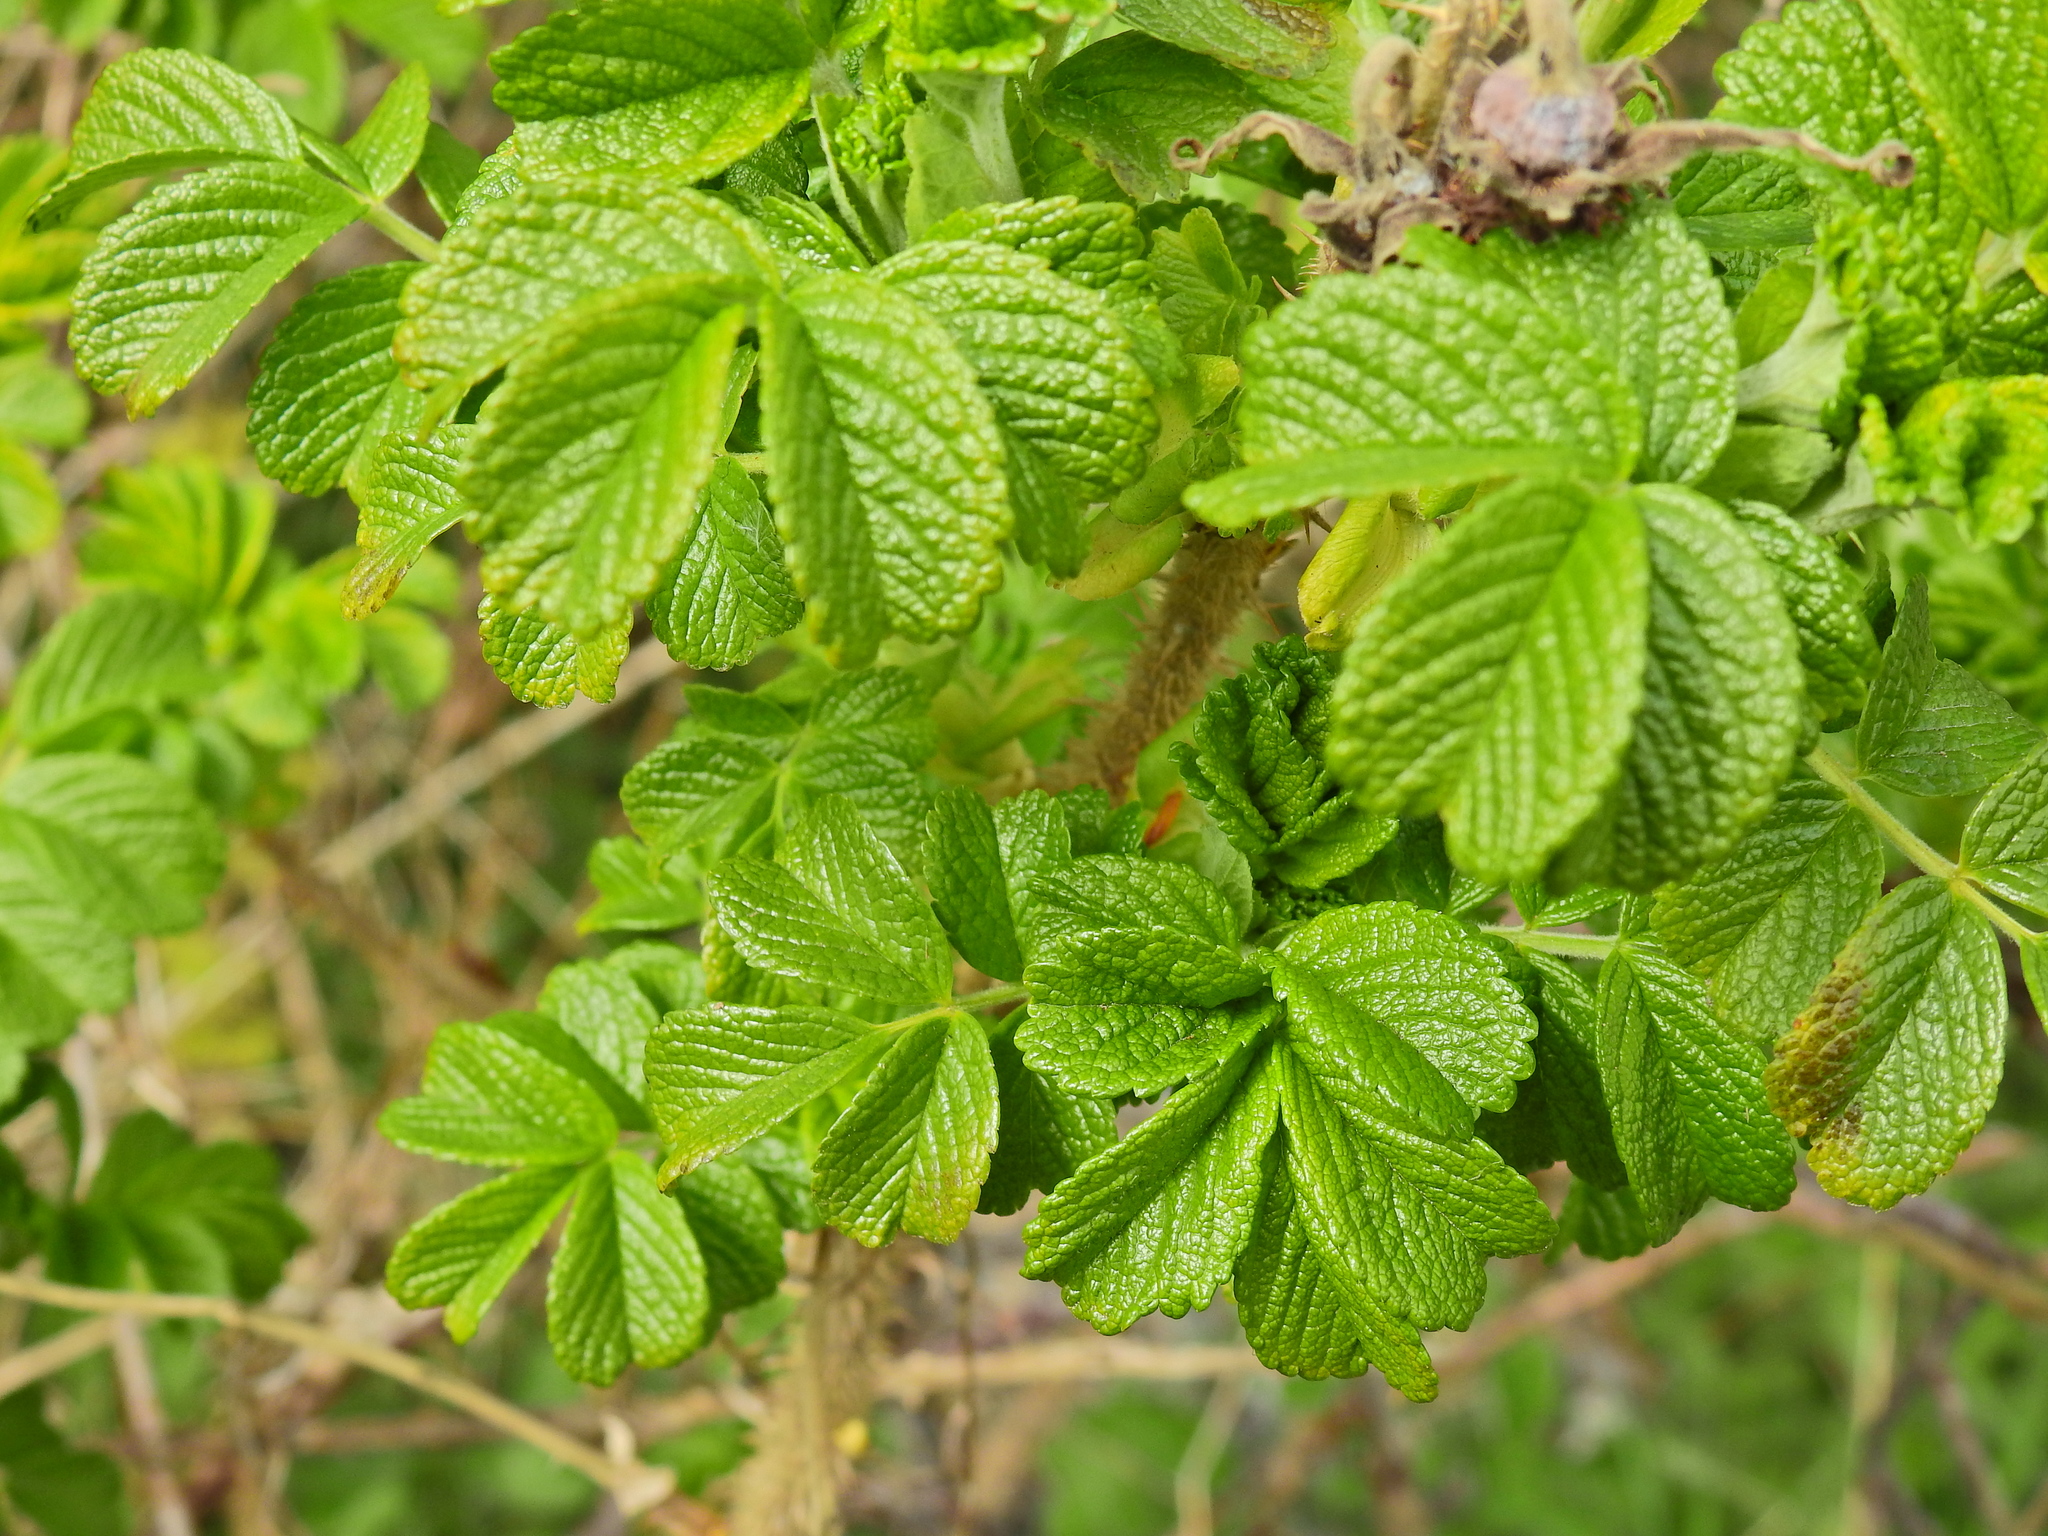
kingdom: Plantae
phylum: Tracheophyta
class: Magnoliopsida
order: Rosales
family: Rosaceae
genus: Rosa
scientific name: Rosa rugosa
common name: Japanese rose
